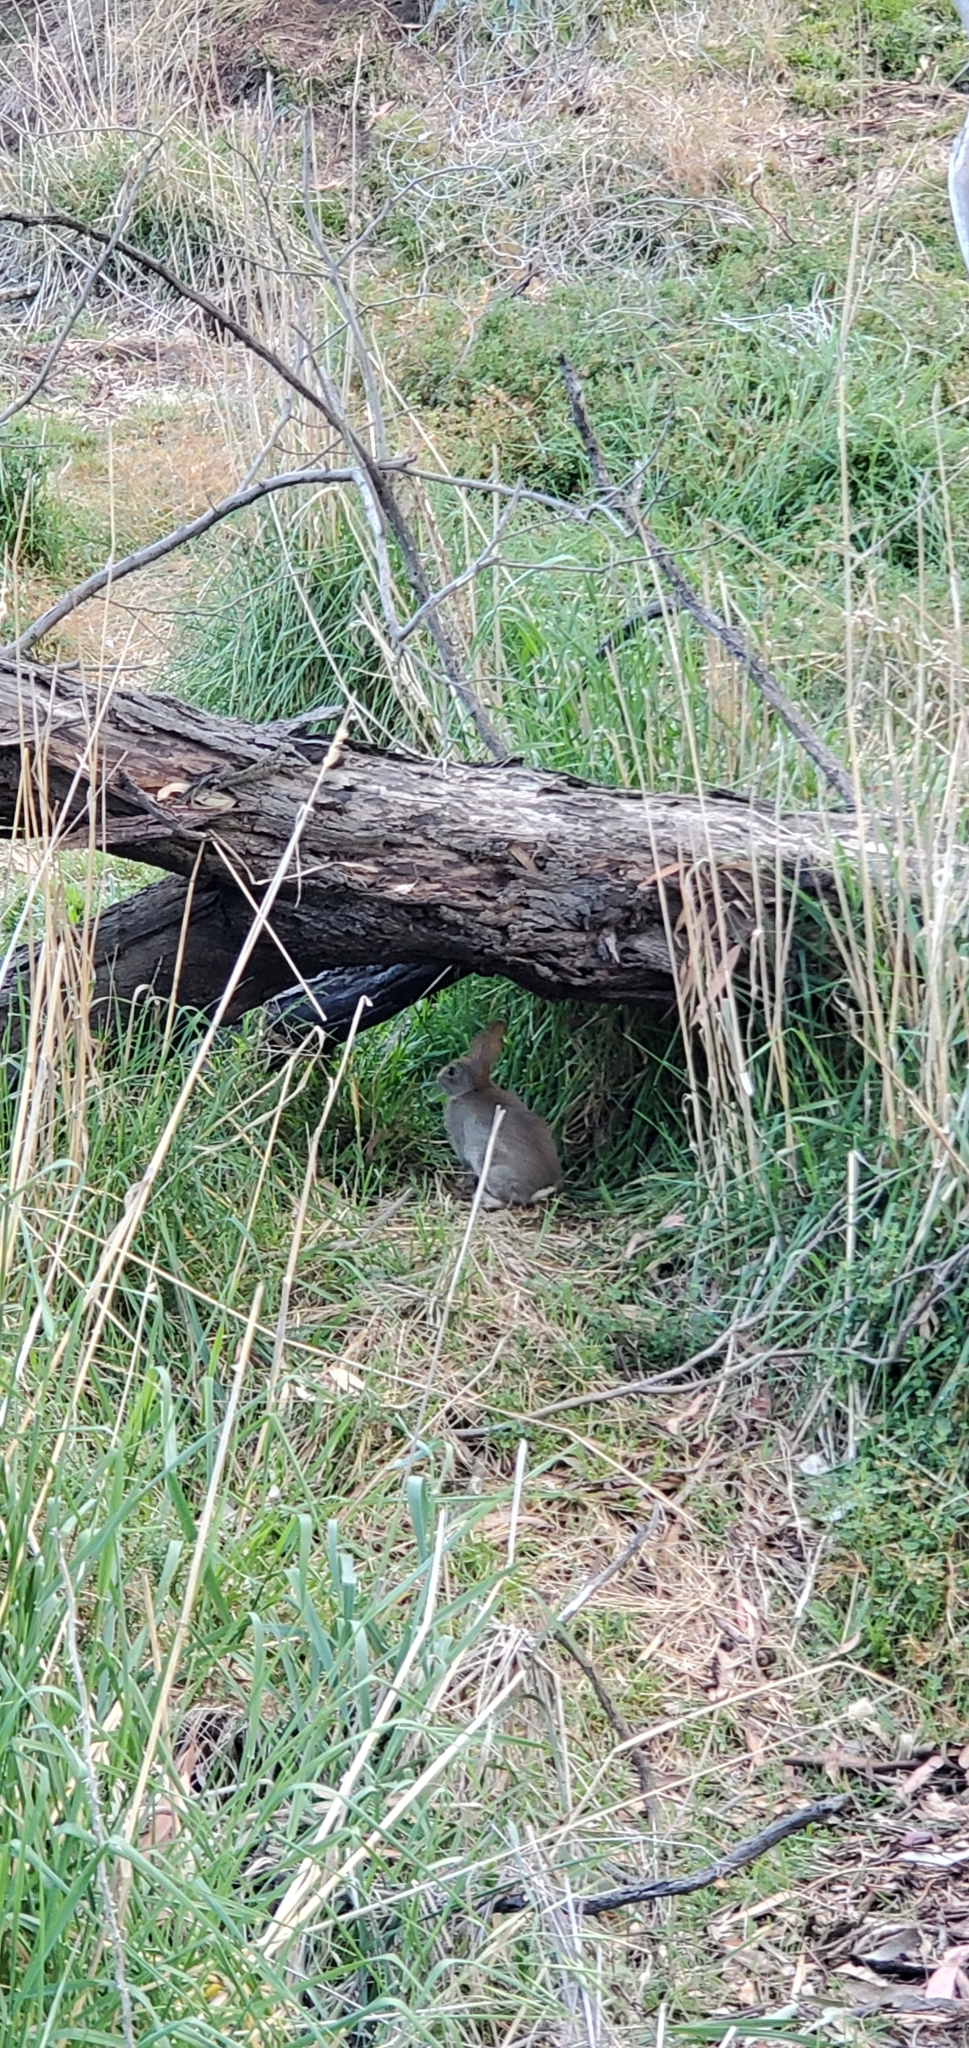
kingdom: Animalia
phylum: Chordata
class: Mammalia
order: Lagomorpha
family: Leporidae
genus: Oryctolagus
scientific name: Oryctolagus cuniculus
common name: European rabbit
